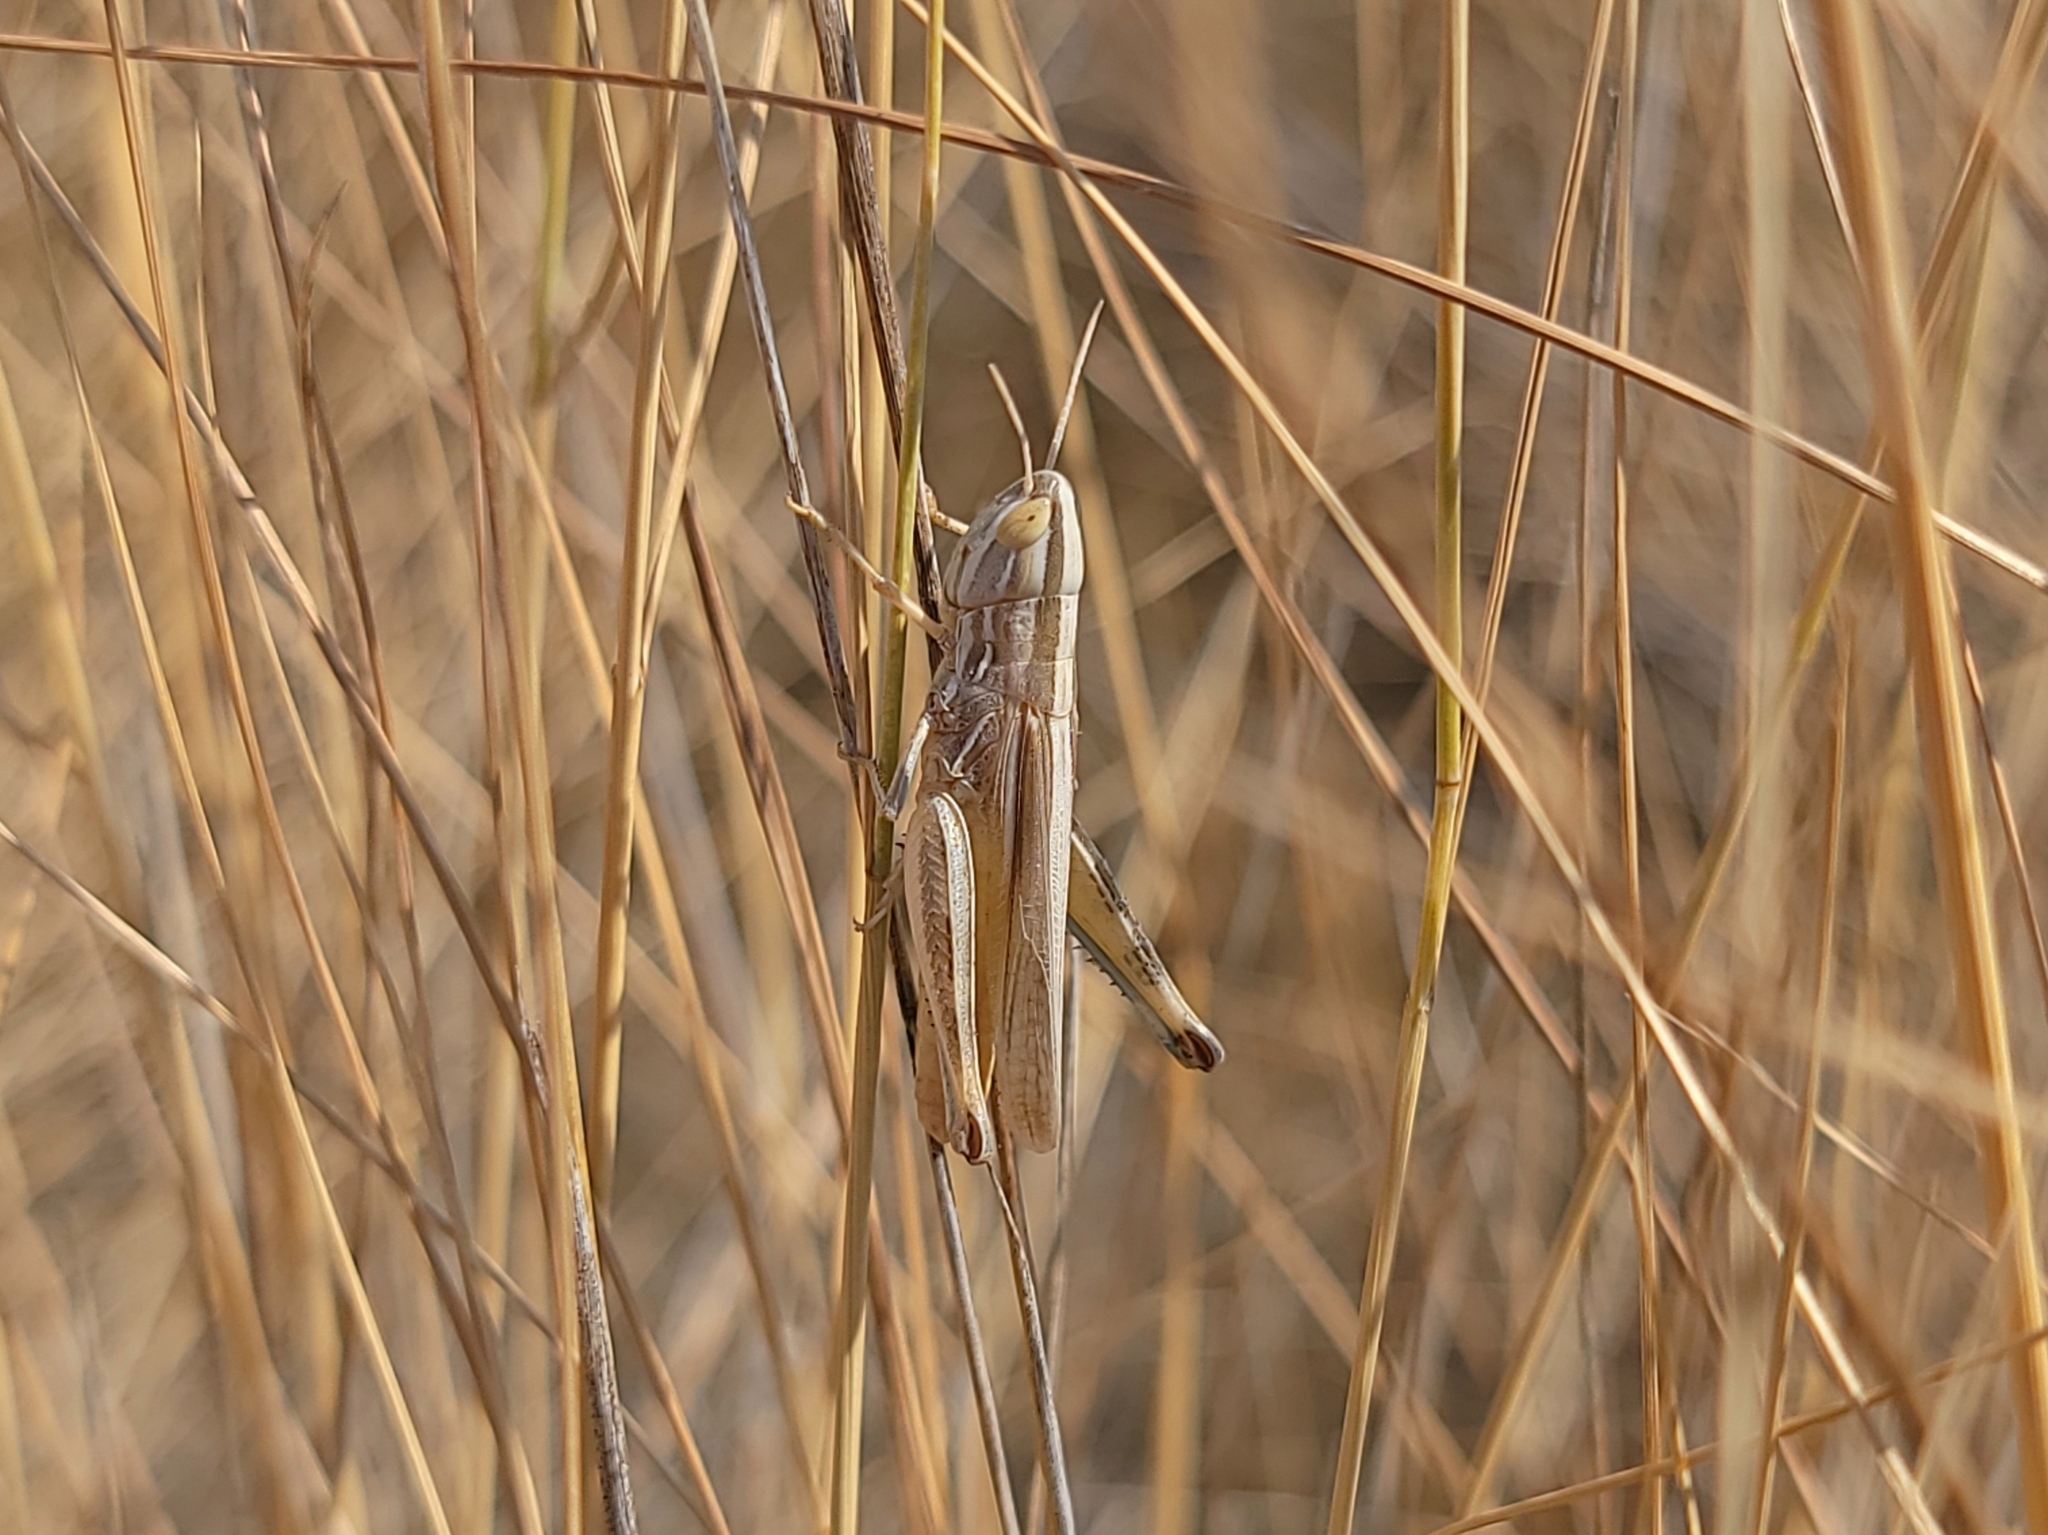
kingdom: Animalia
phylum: Arthropoda
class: Insecta
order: Orthoptera
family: Acrididae
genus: Amphitornus
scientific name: Amphitornus coloradus
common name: Striped grasshopper
